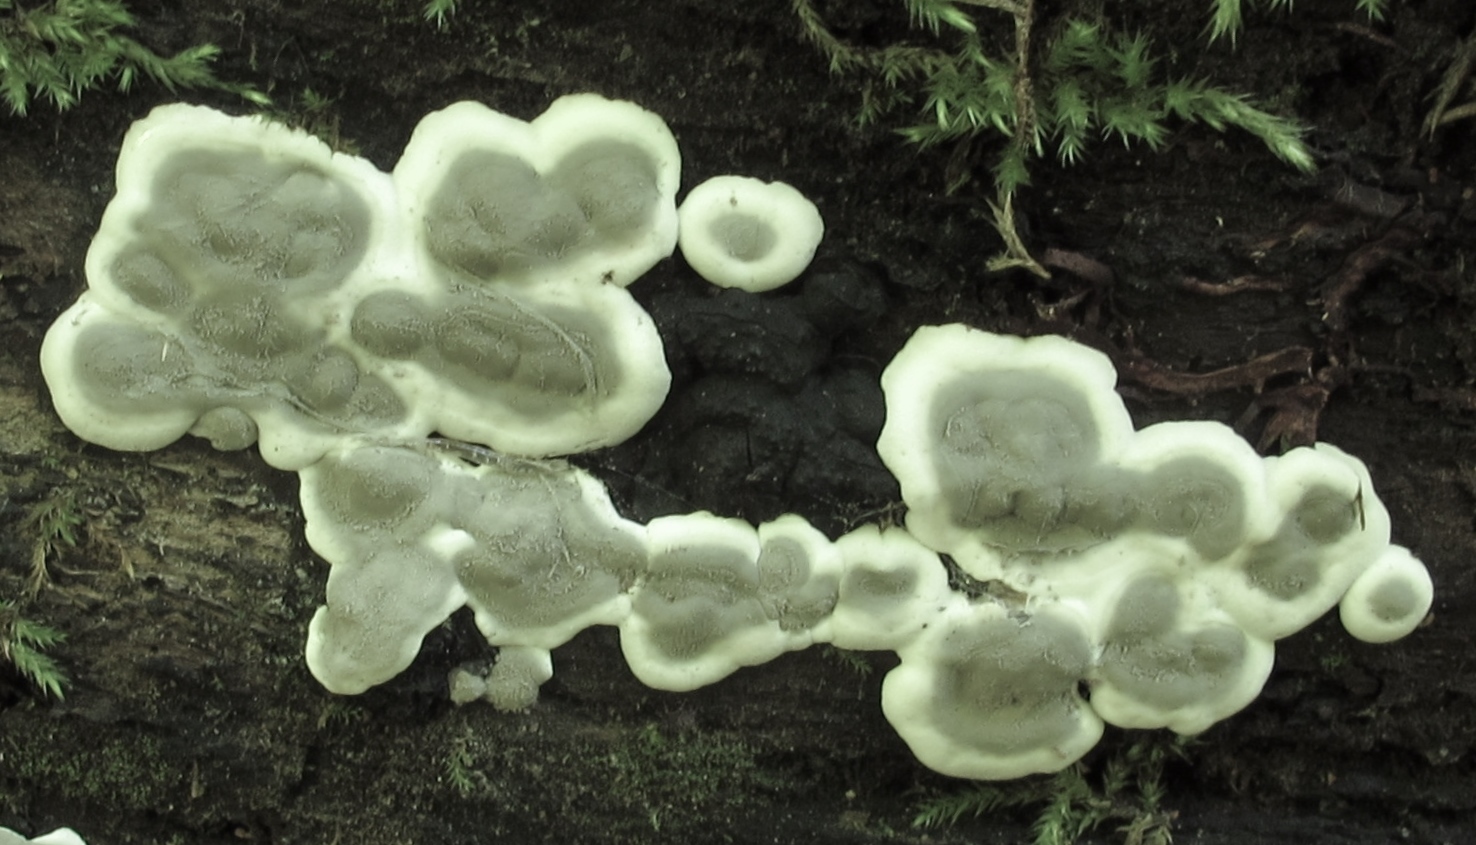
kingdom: Fungi
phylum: Ascomycota
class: Sordariomycetes
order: Xylariales
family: Xylariaceae
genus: Kretzschmaria
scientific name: Kretzschmaria deusta
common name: Brittle cinder
